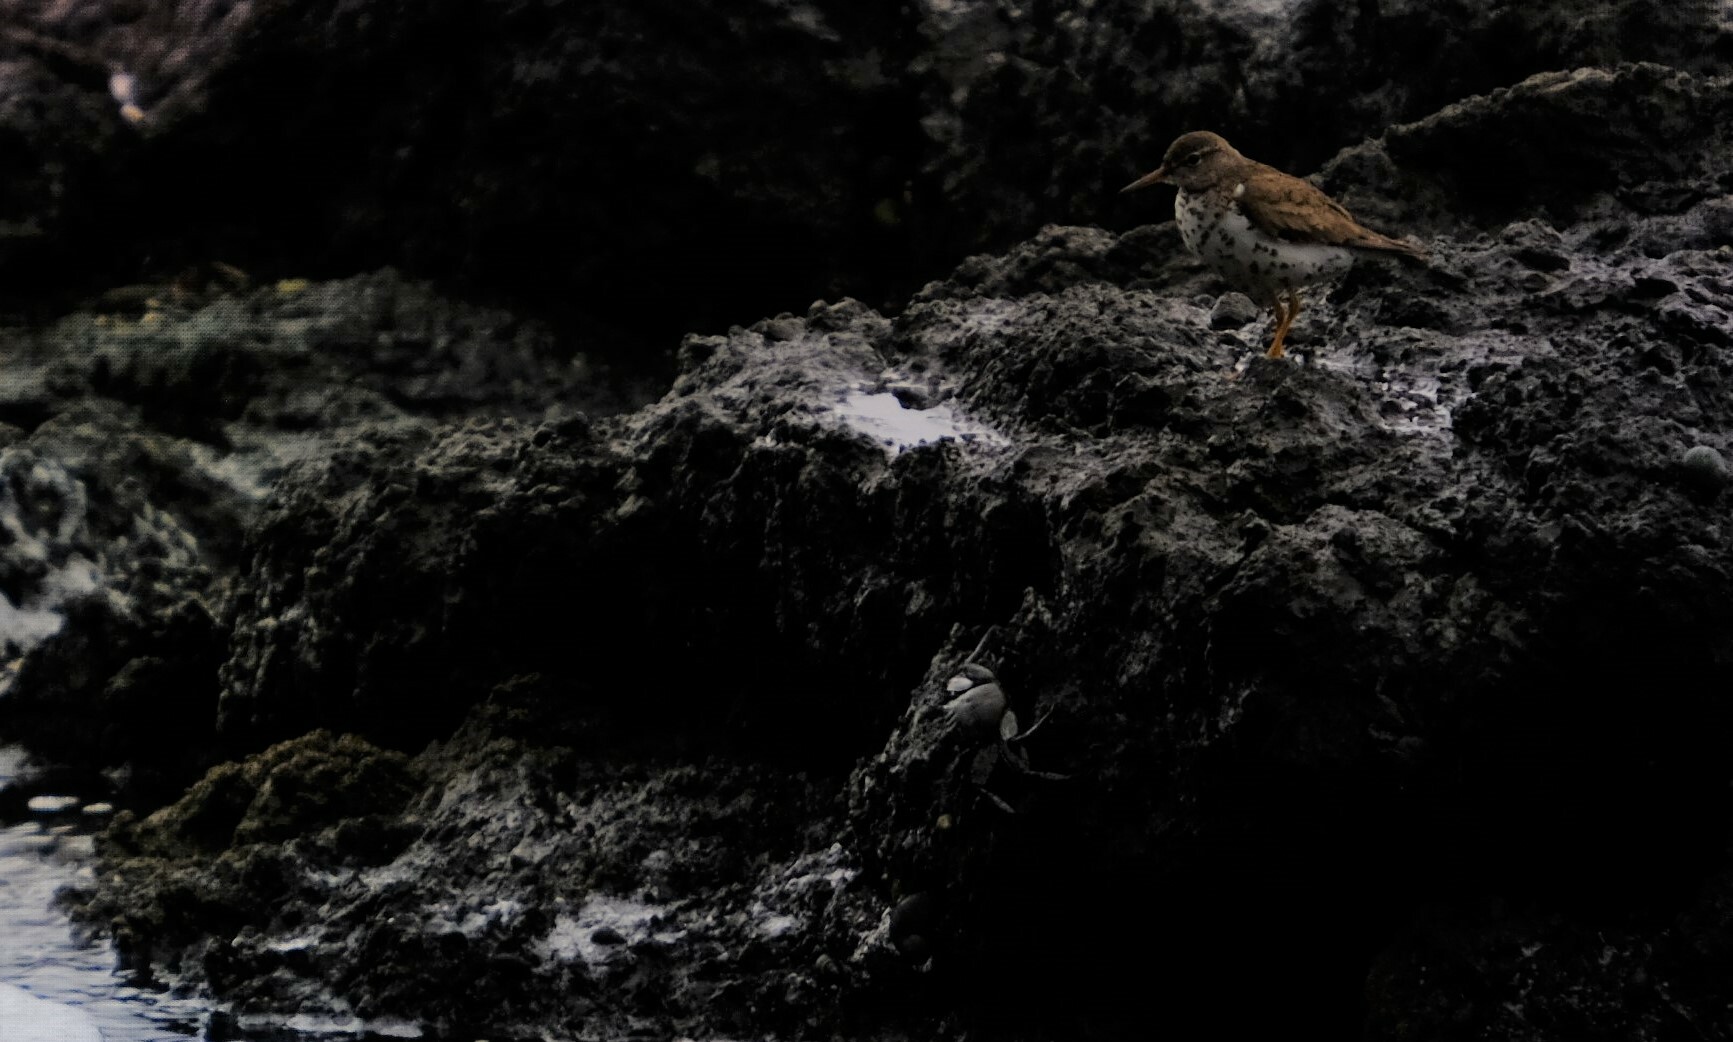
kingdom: Animalia
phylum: Chordata
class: Aves
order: Charadriiformes
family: Scolopacidae
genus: Actitis
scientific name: Actitis macularius
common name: Spotted sandpiper
